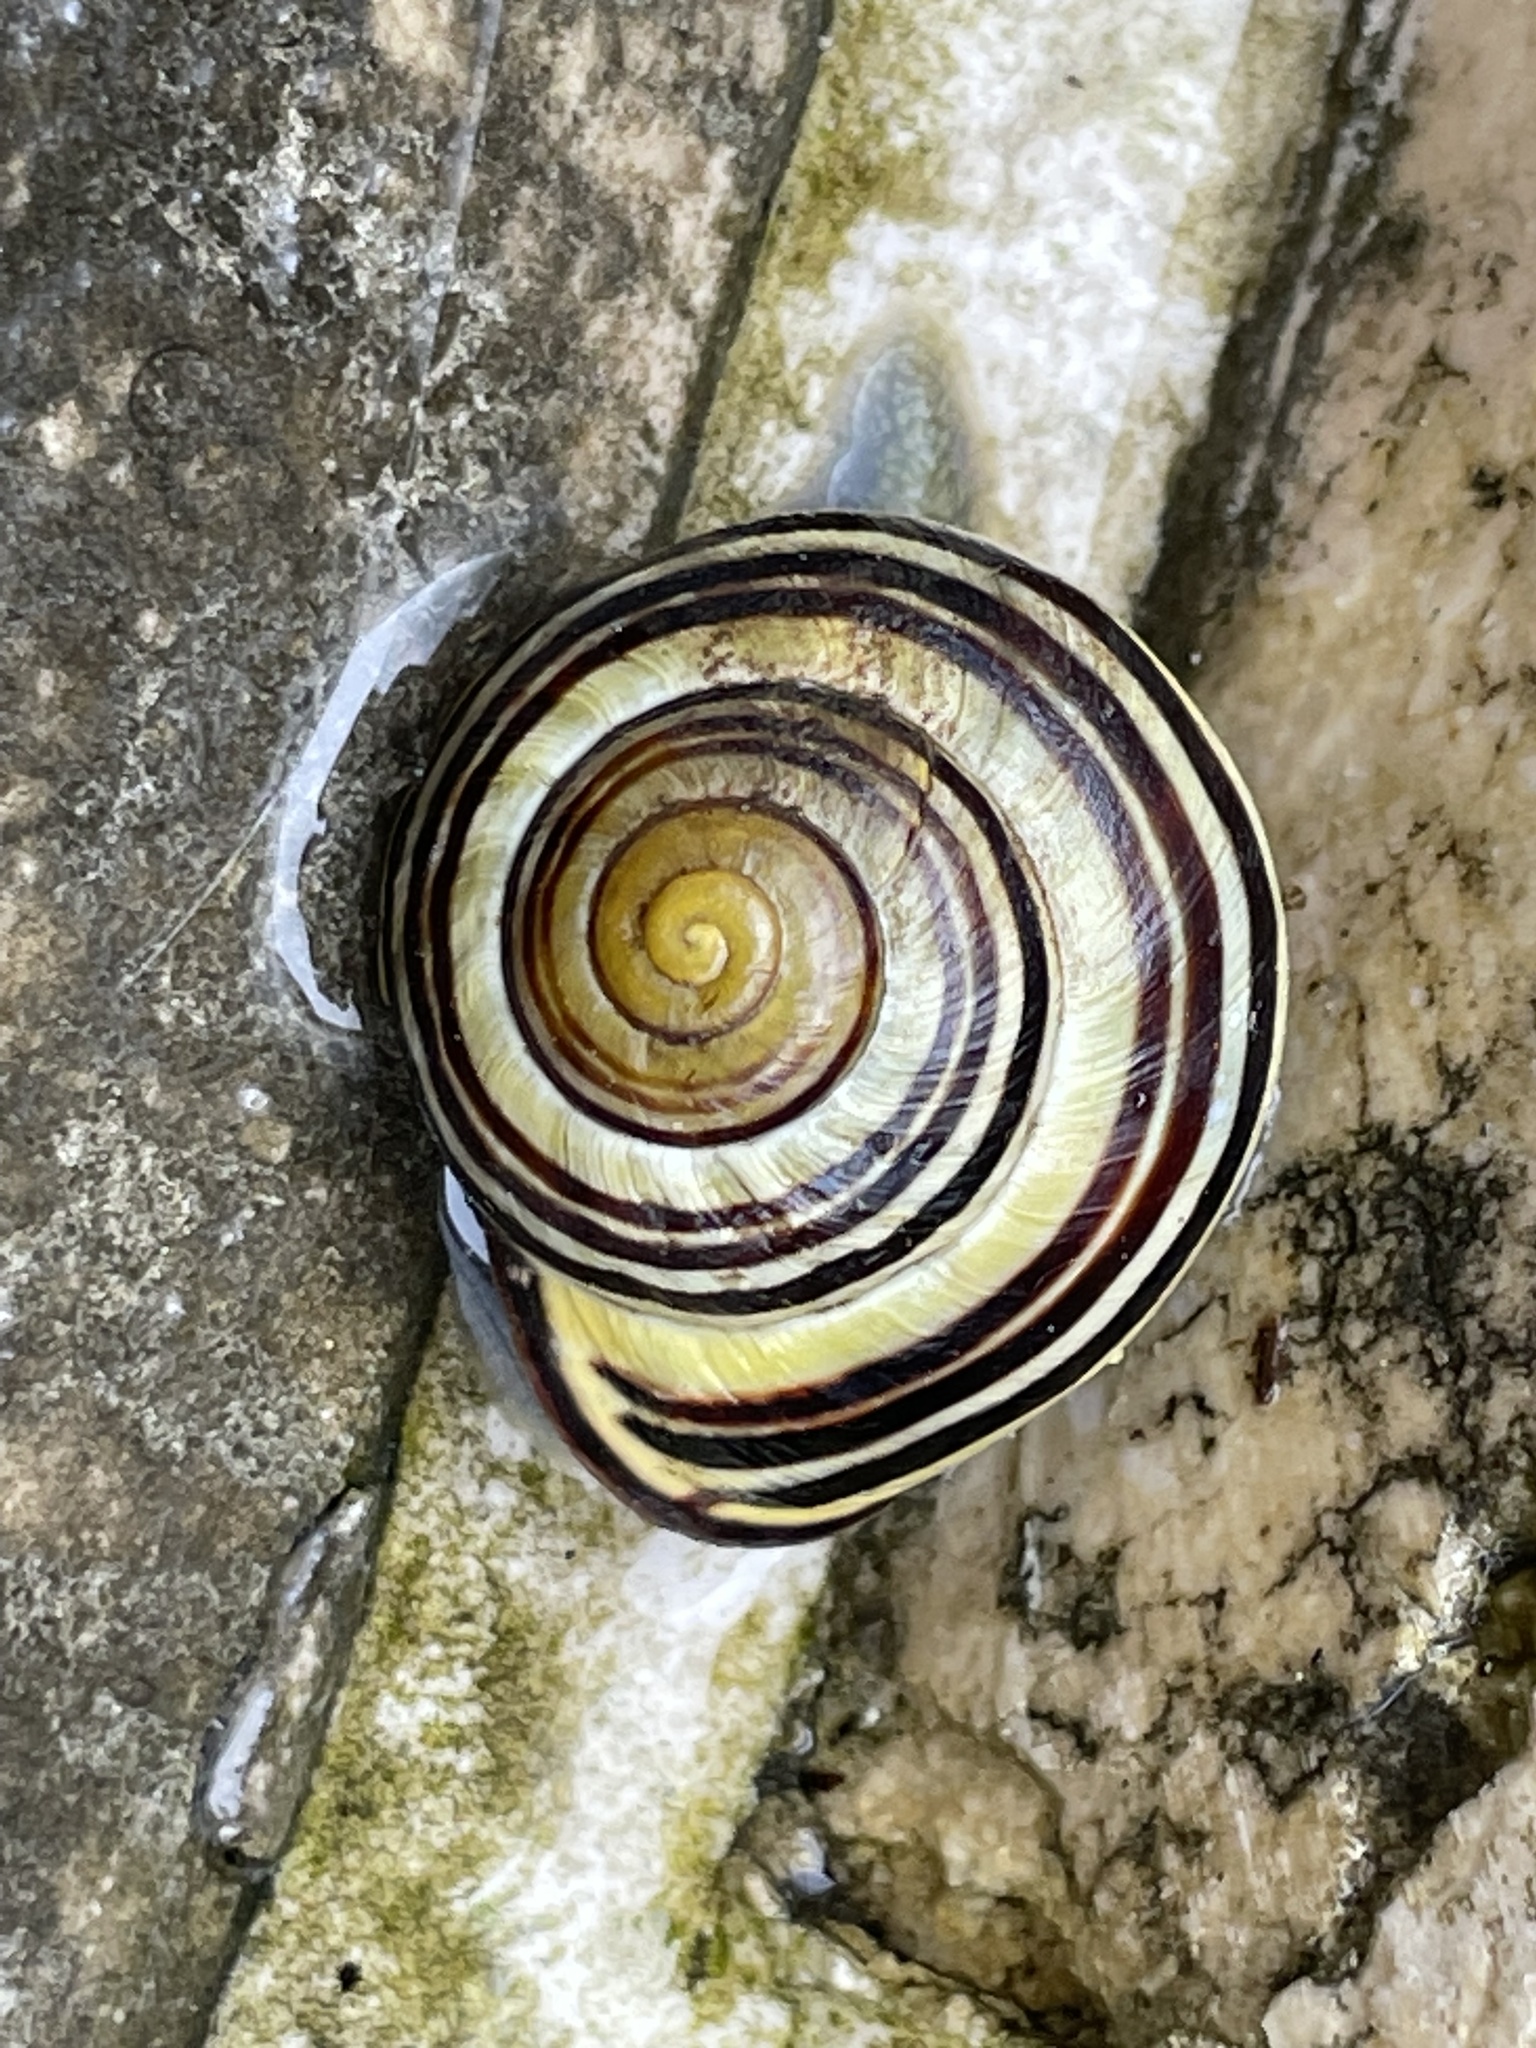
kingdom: Animalia
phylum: Mollusca
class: Gastropoda
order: Stylommatophora
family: Helicidae
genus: Cepaea
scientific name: Cepaea nemoralis
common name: Grovesnail
